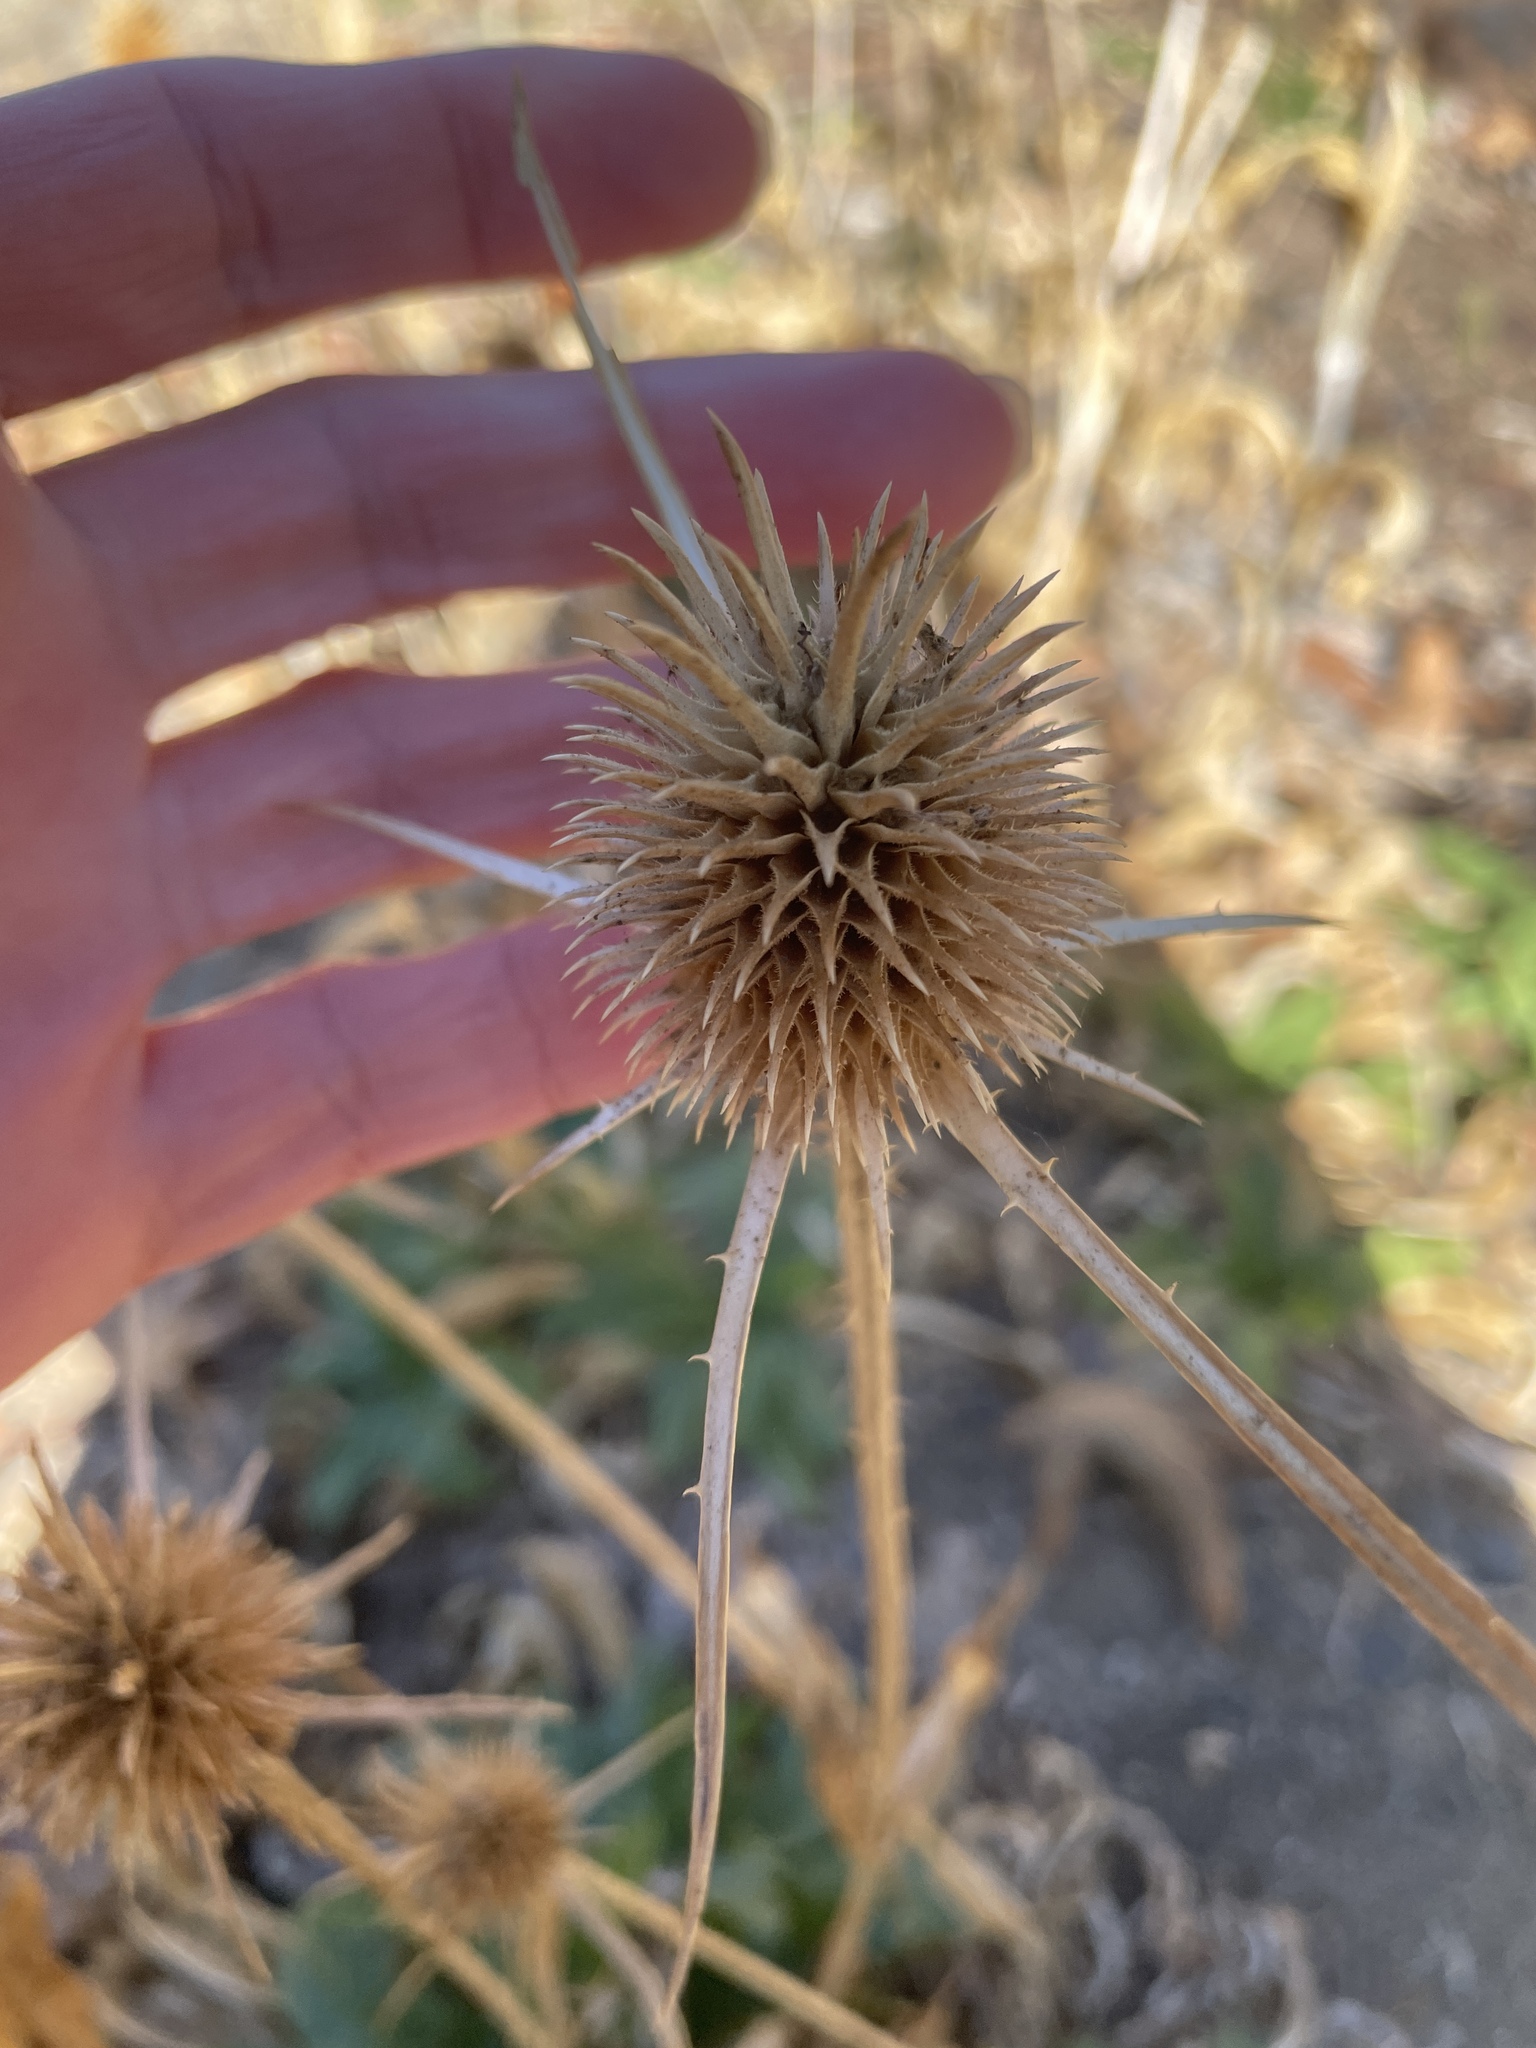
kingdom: Plantae
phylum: Tracheophyta
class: Magnoliopsida
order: Dipsacales
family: Caprifoliaceae
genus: Dipsacus
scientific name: Dipsacus sativus
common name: Fuller's teasel
